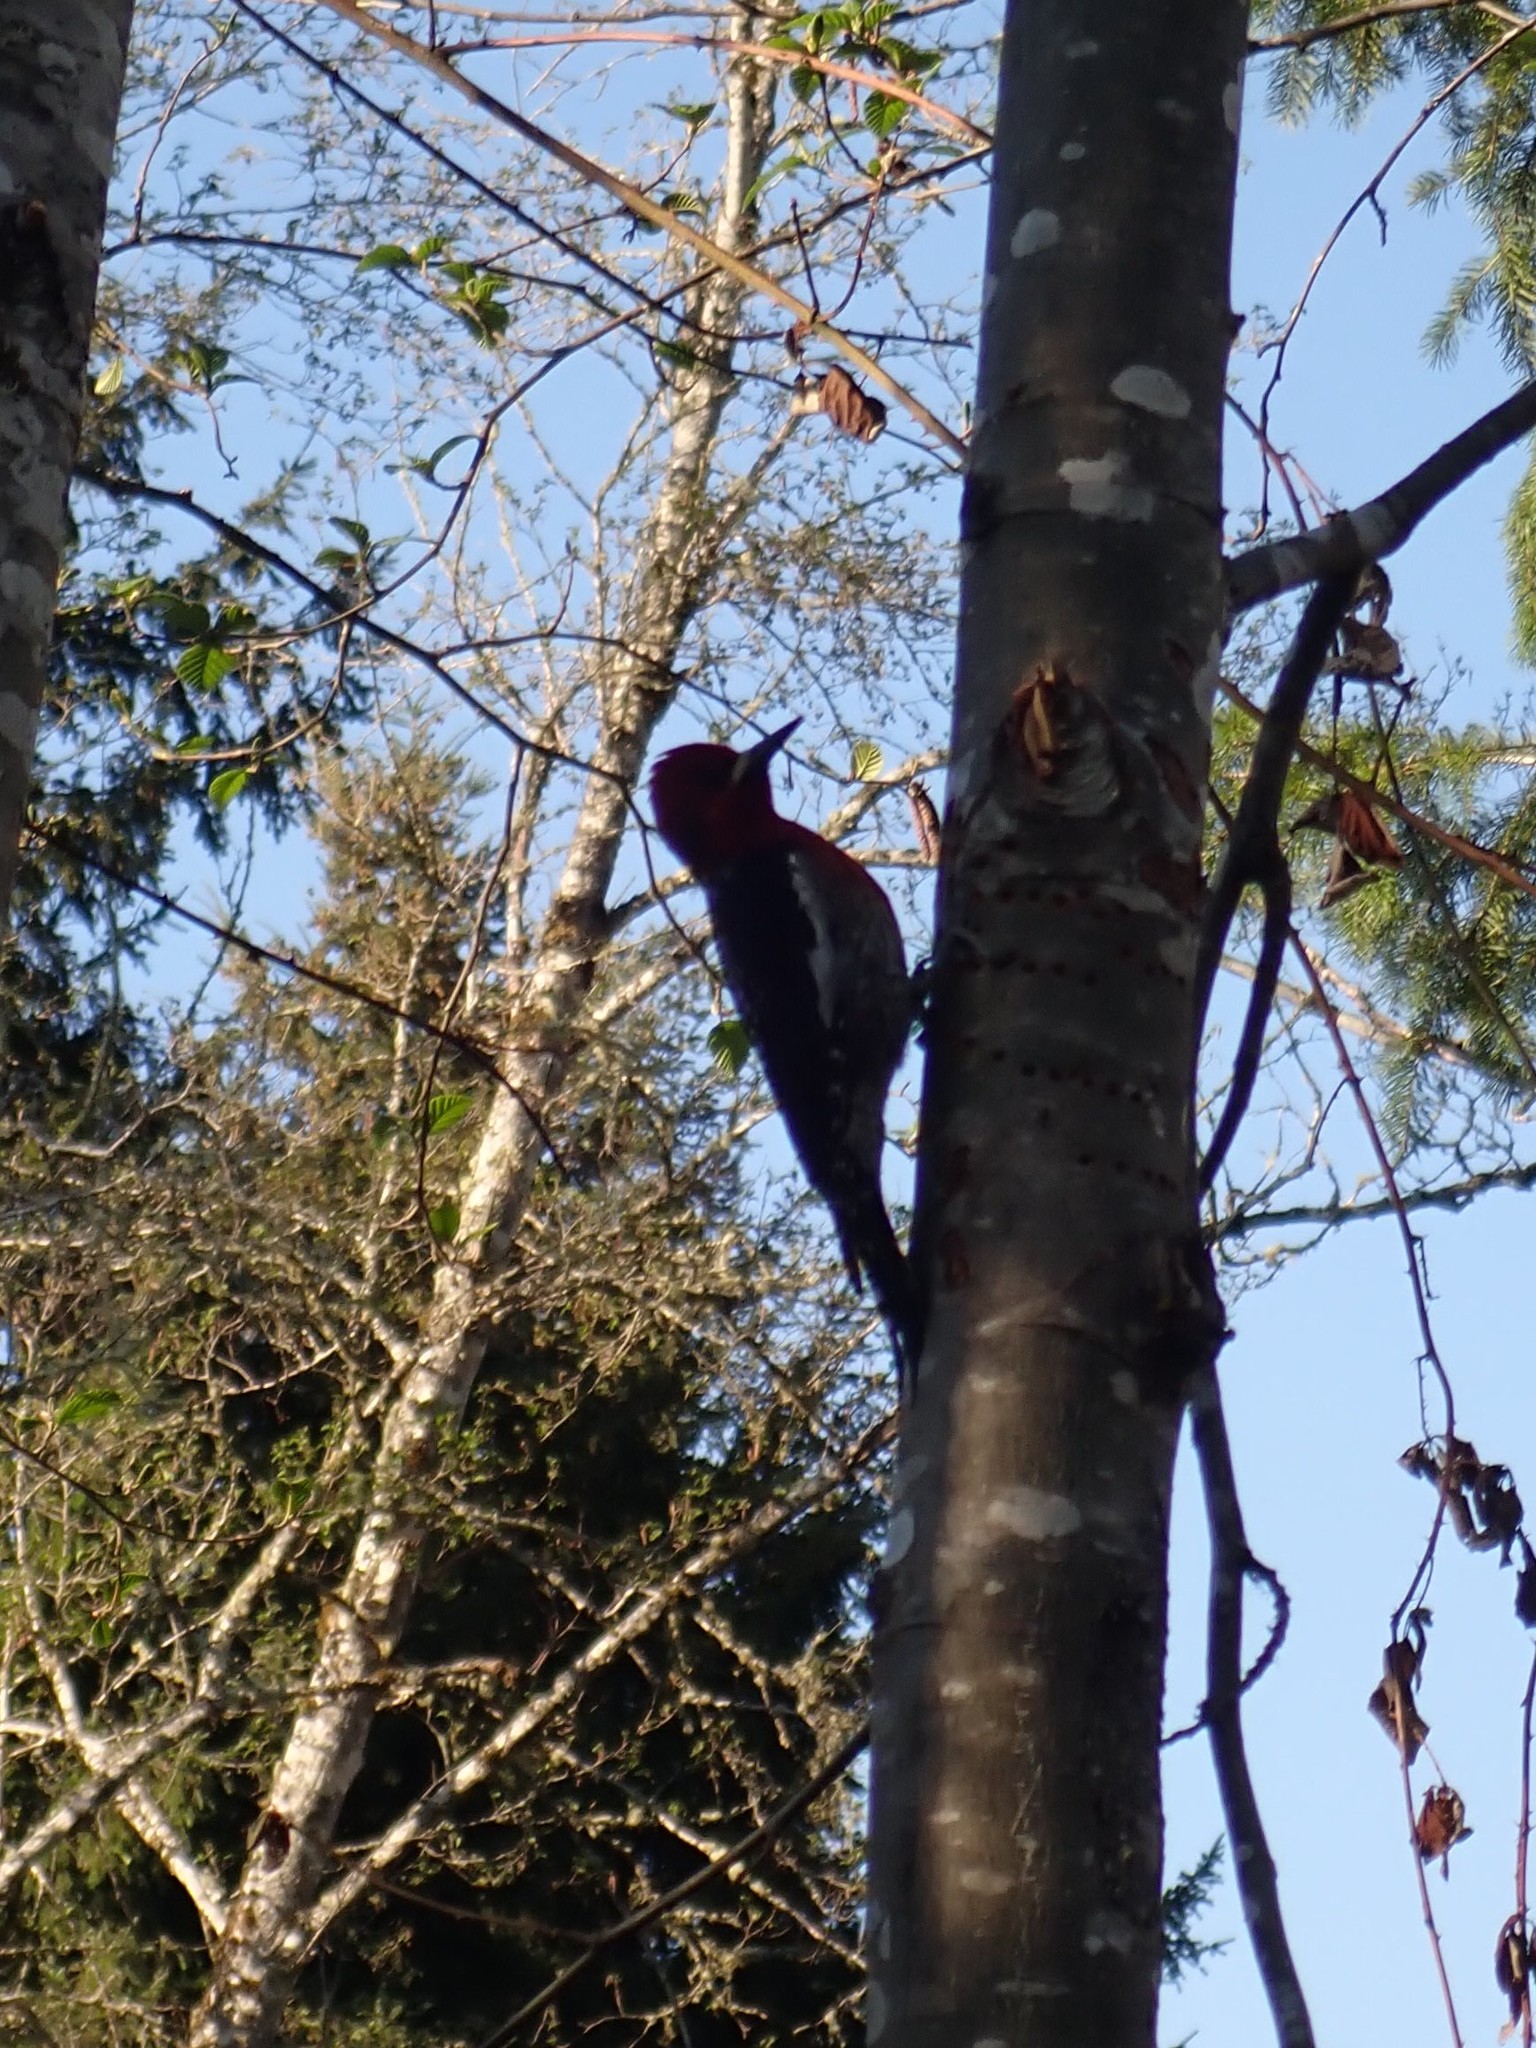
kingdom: Animalia
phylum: Chordata
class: Aves
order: Piciformes
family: Picidae
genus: Sphyrapicus
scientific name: Sphyrapicus ruber
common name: Red-breasted sapsucker
